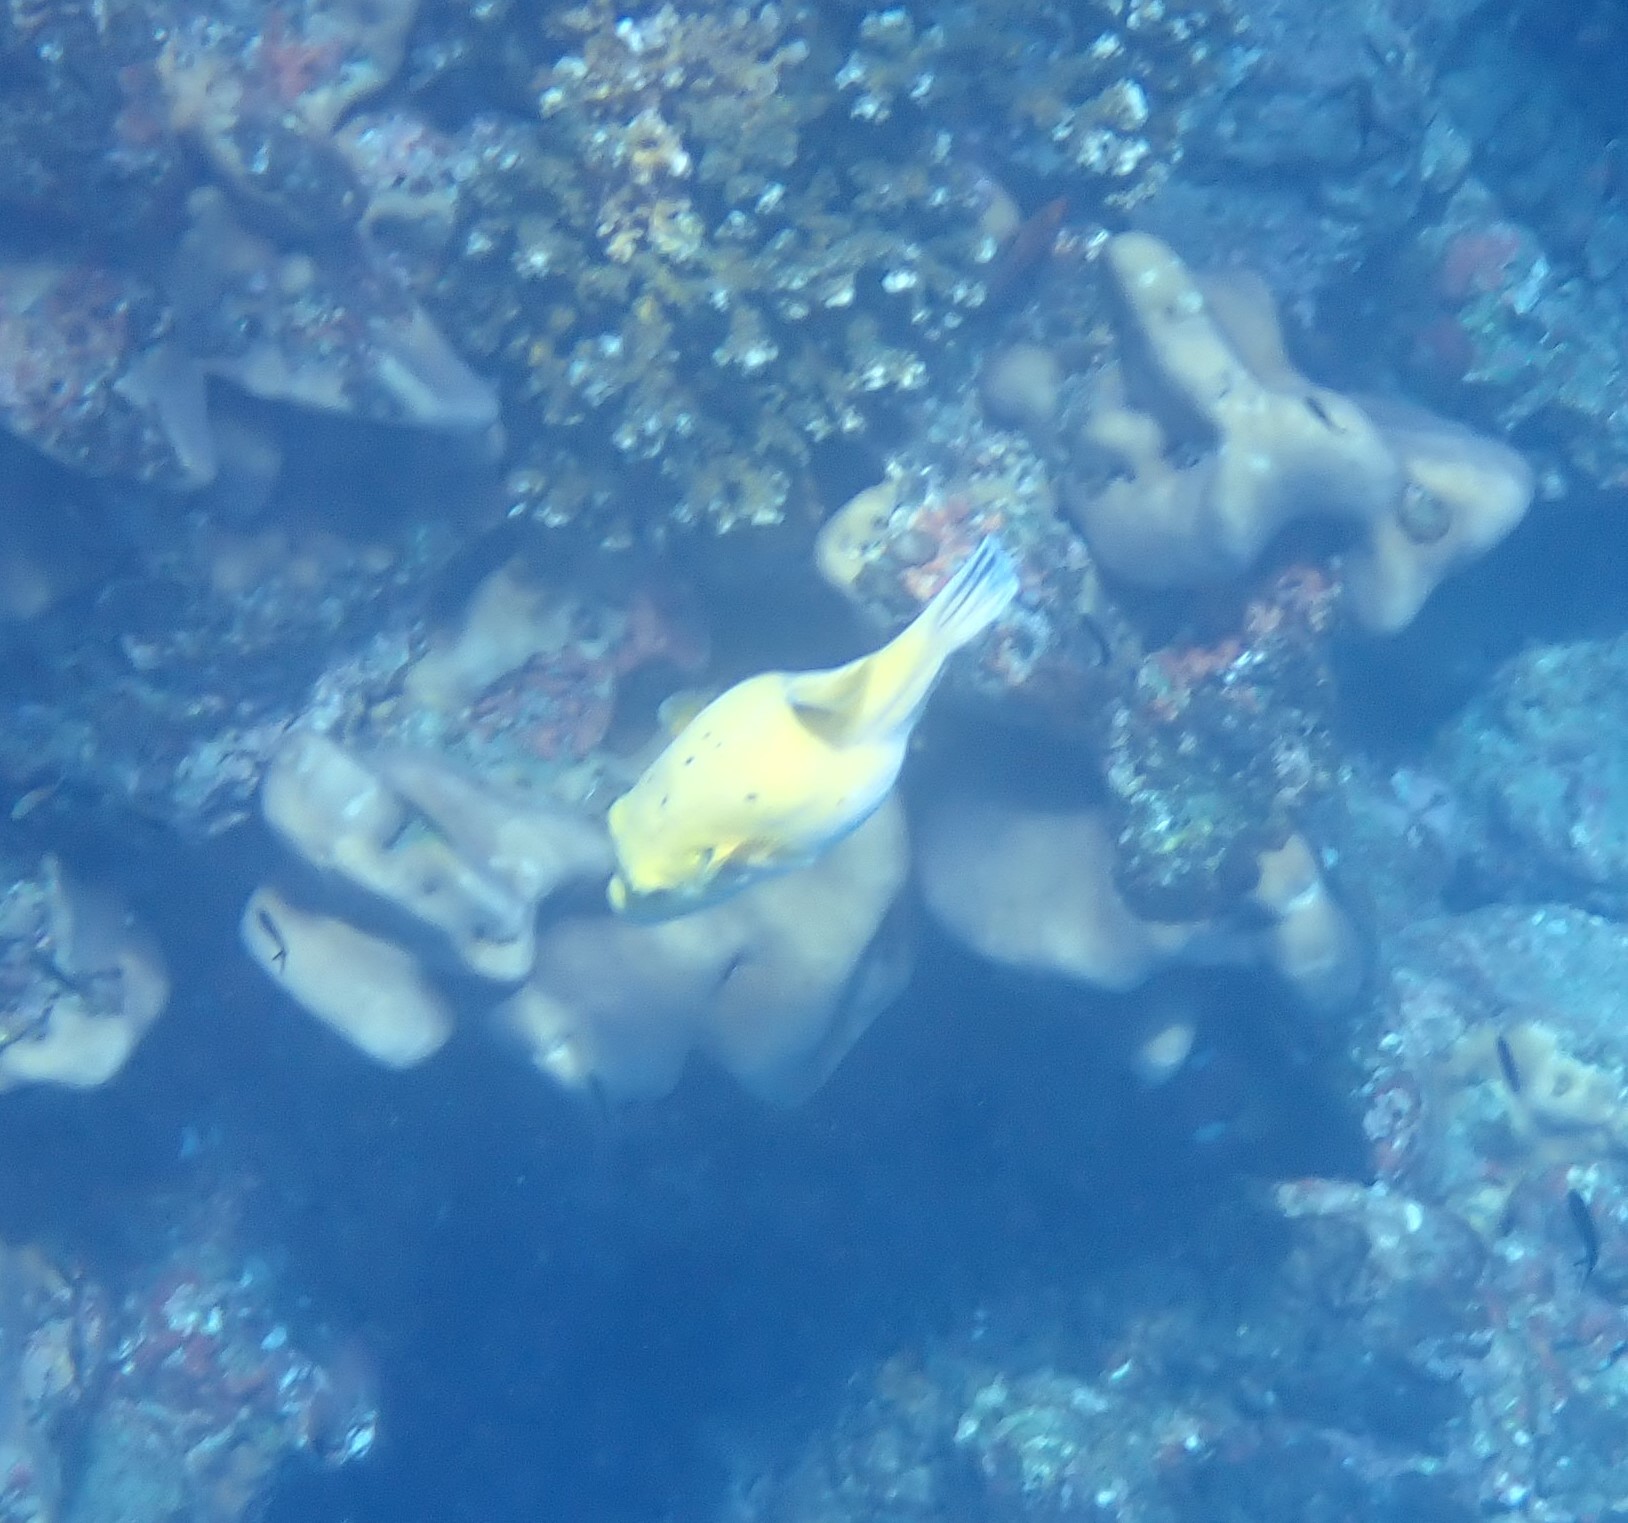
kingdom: Animalia
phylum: Chordata
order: Tetraodontiformes
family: Tetraodontidae
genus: Arothron
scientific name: Arothron meleagris
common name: Guinea-fowl pufferfish
